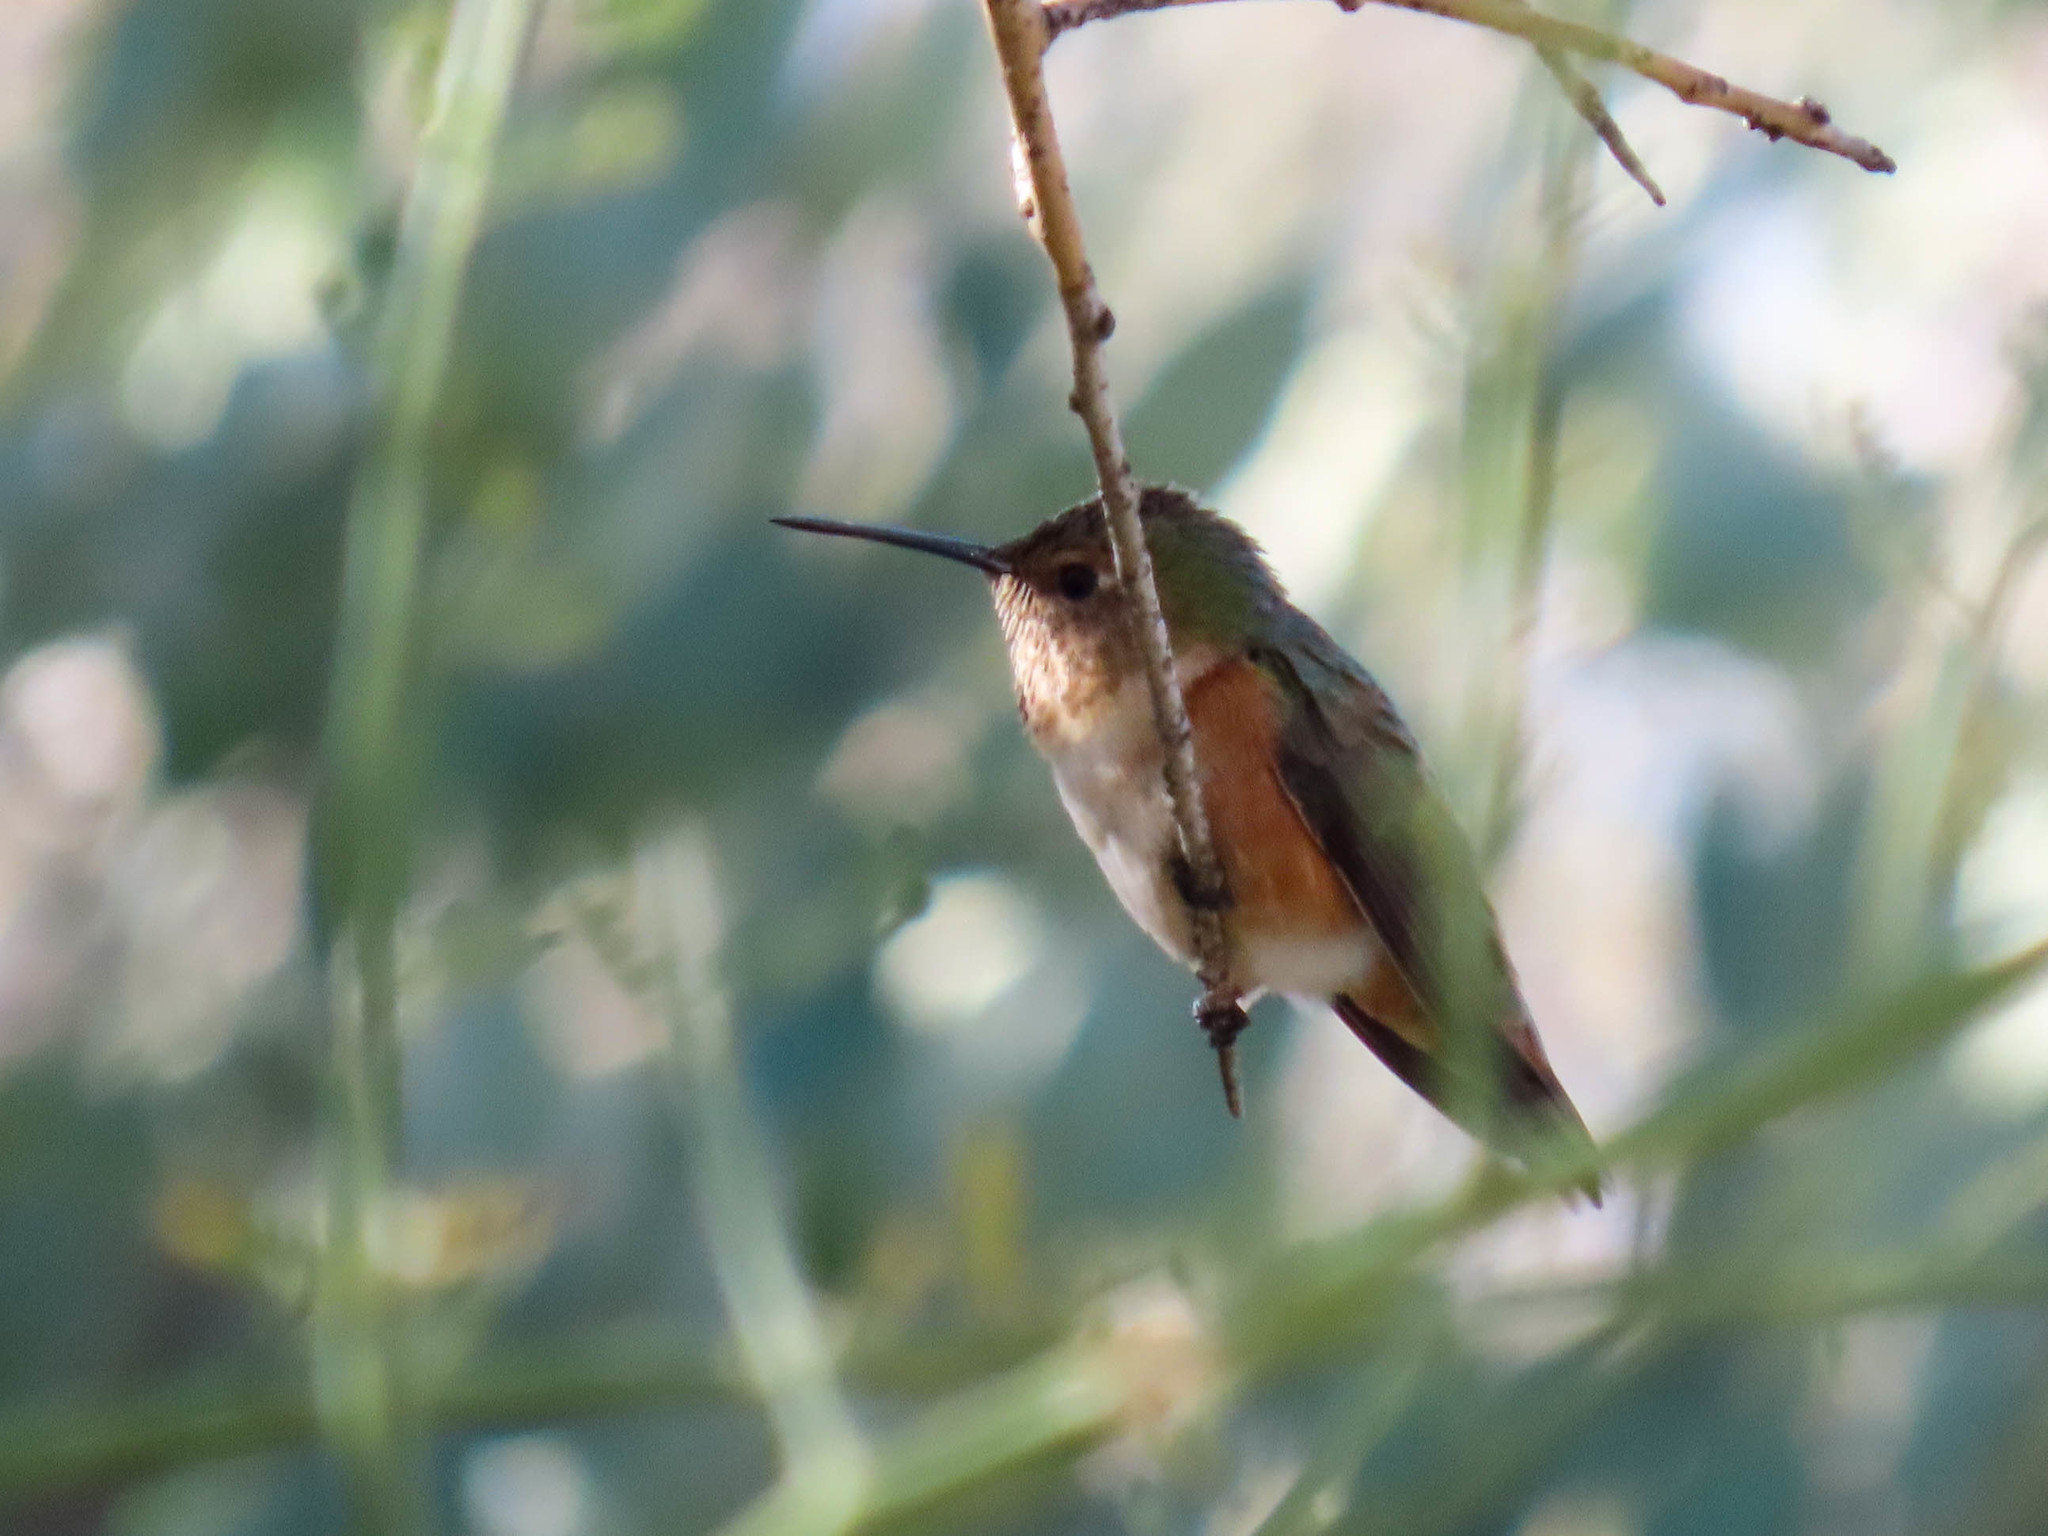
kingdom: Animalia
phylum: Chordata
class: Aves
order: Apodiformes
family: Trochilidae
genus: Selasphorus
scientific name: Selasphorus rufus
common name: Rufous hummingbird
